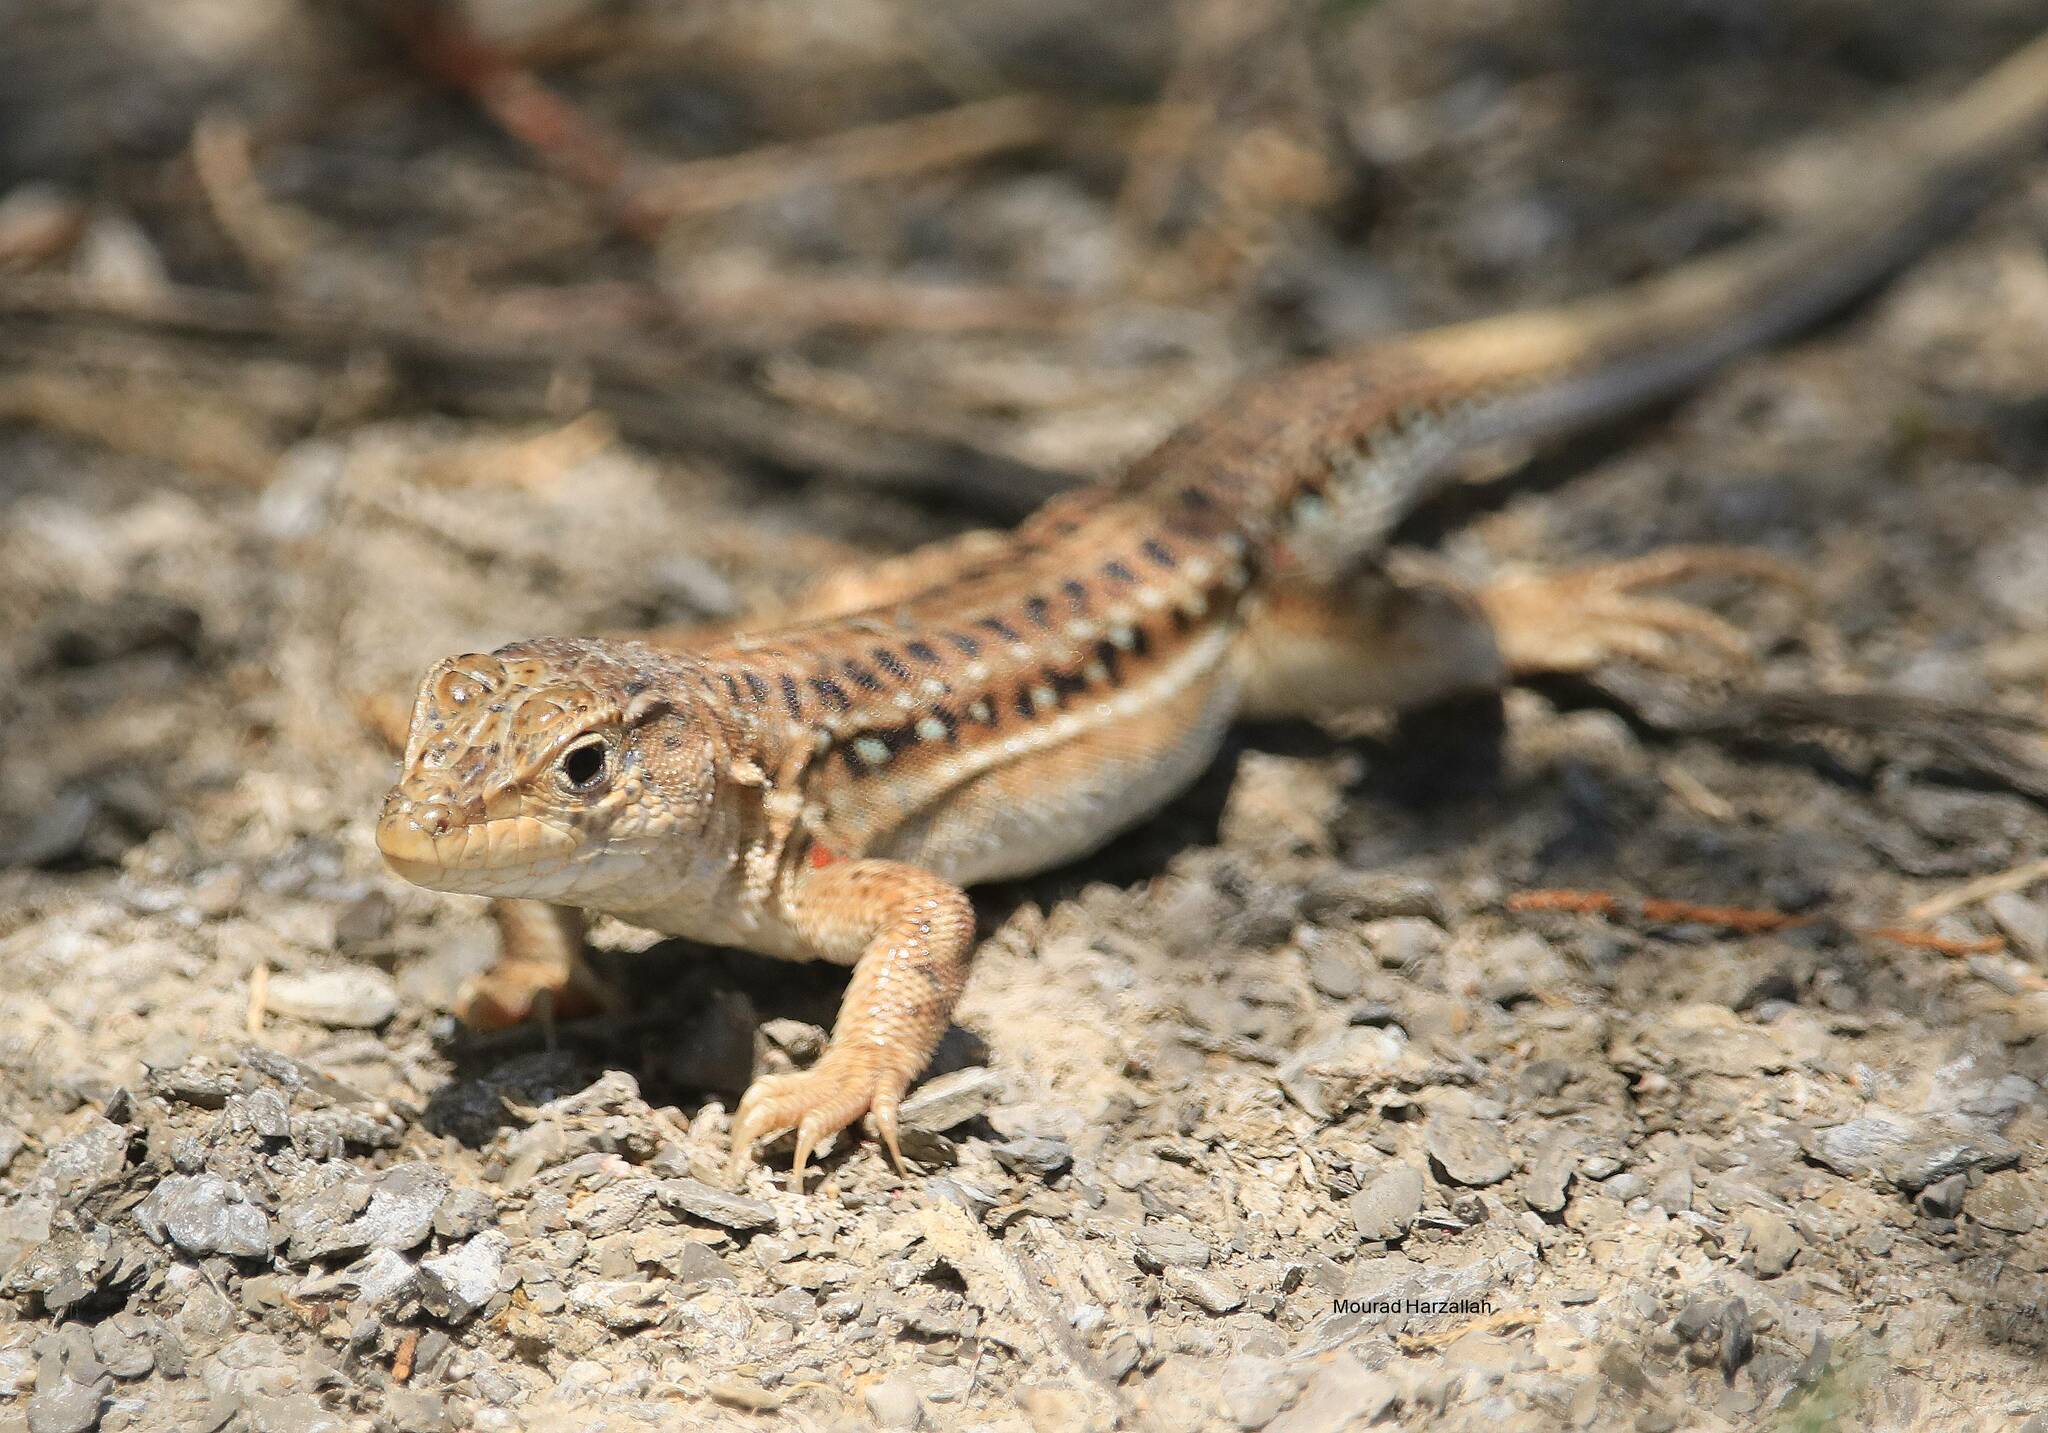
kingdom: Animalia
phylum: Chordata
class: Squamata
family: Lacertidae
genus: Acanthodactylus
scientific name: Acanthodactylus erythrurus
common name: Spiny-footed lizard
